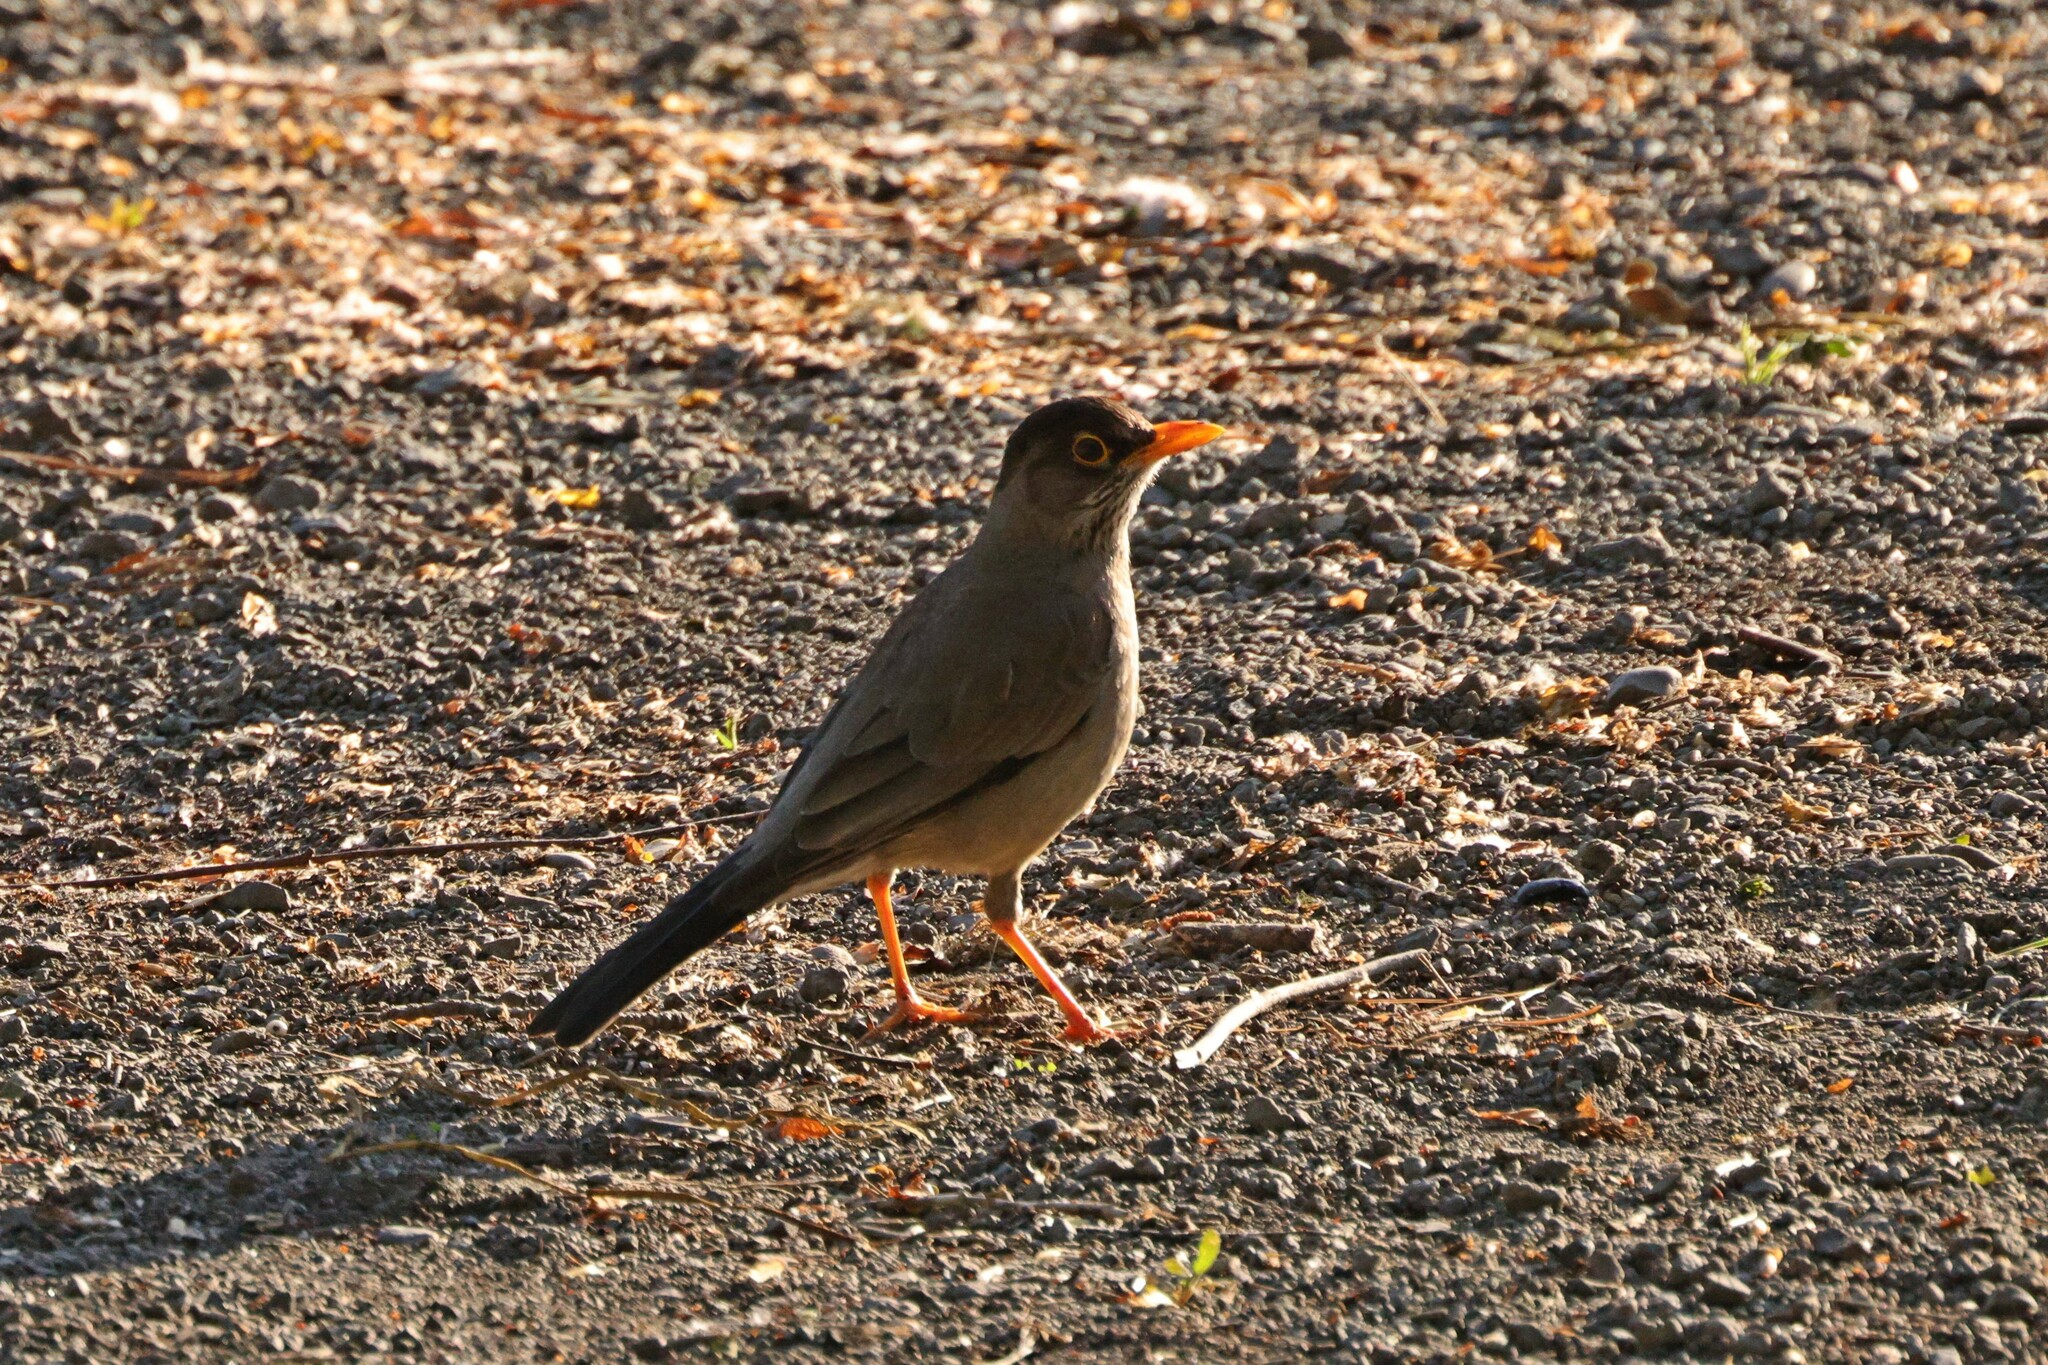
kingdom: Animalia
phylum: Chordata
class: Aves
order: Passeriformes
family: Turdidae
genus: Turdus
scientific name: Turdus falcklandii
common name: Austral thrush
